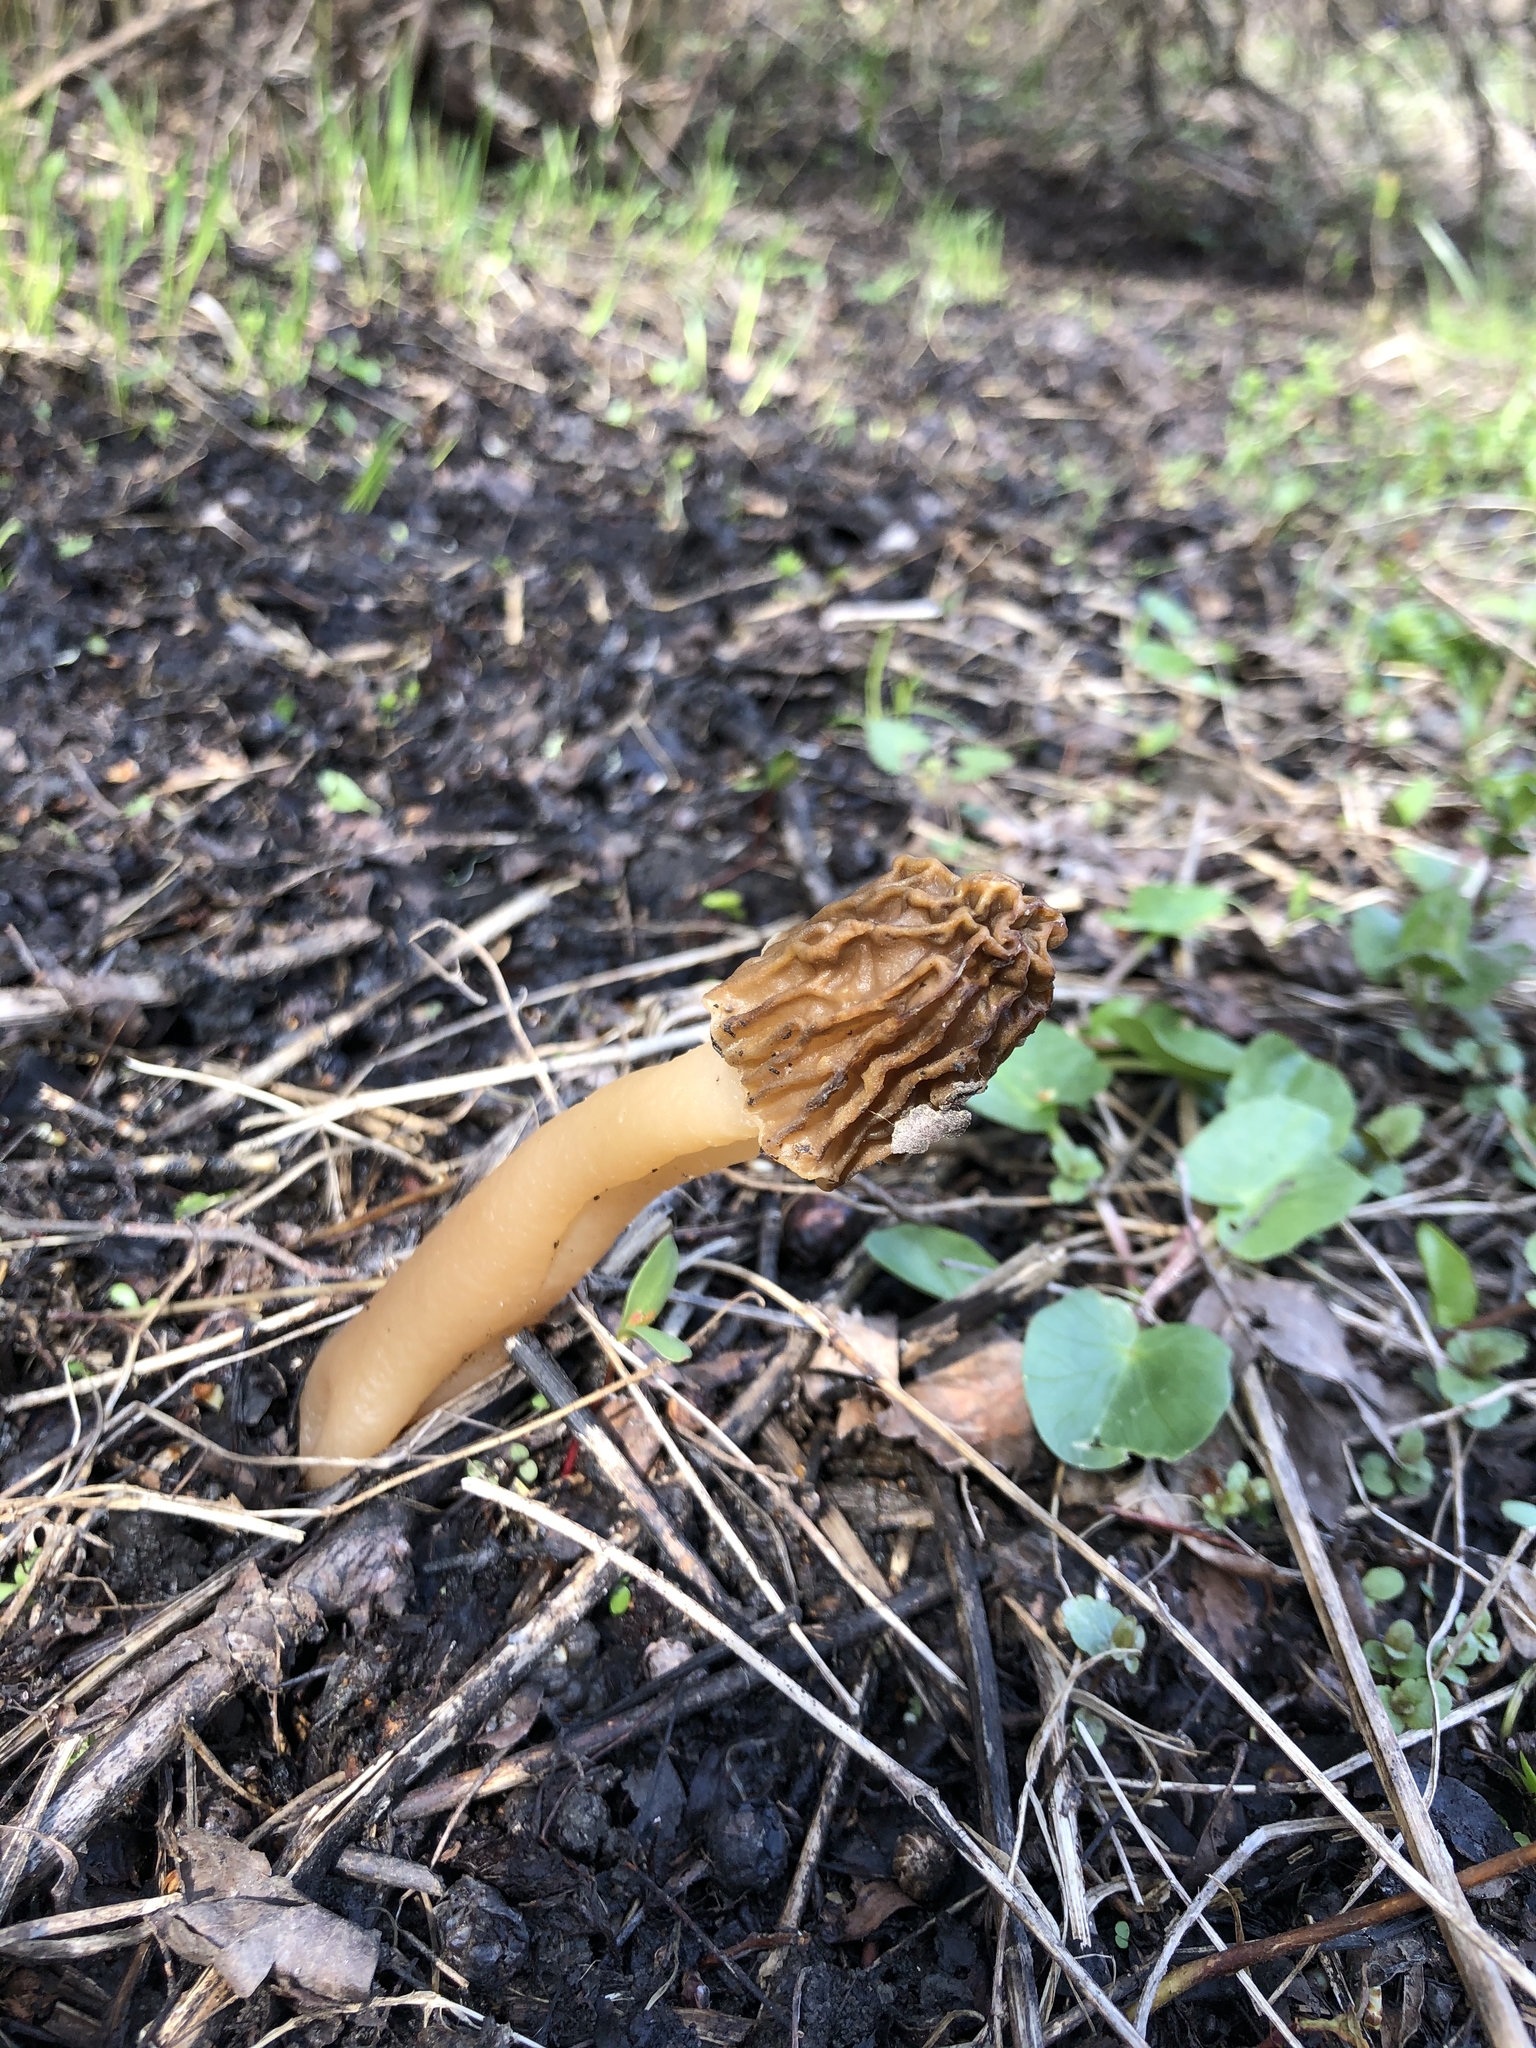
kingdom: Fungi
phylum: Ascomycota
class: Pezizomycetes
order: Pezizales
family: Morchellaceae
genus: Verpa
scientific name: Verpa bohemica
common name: Wrinkled thimble morel
